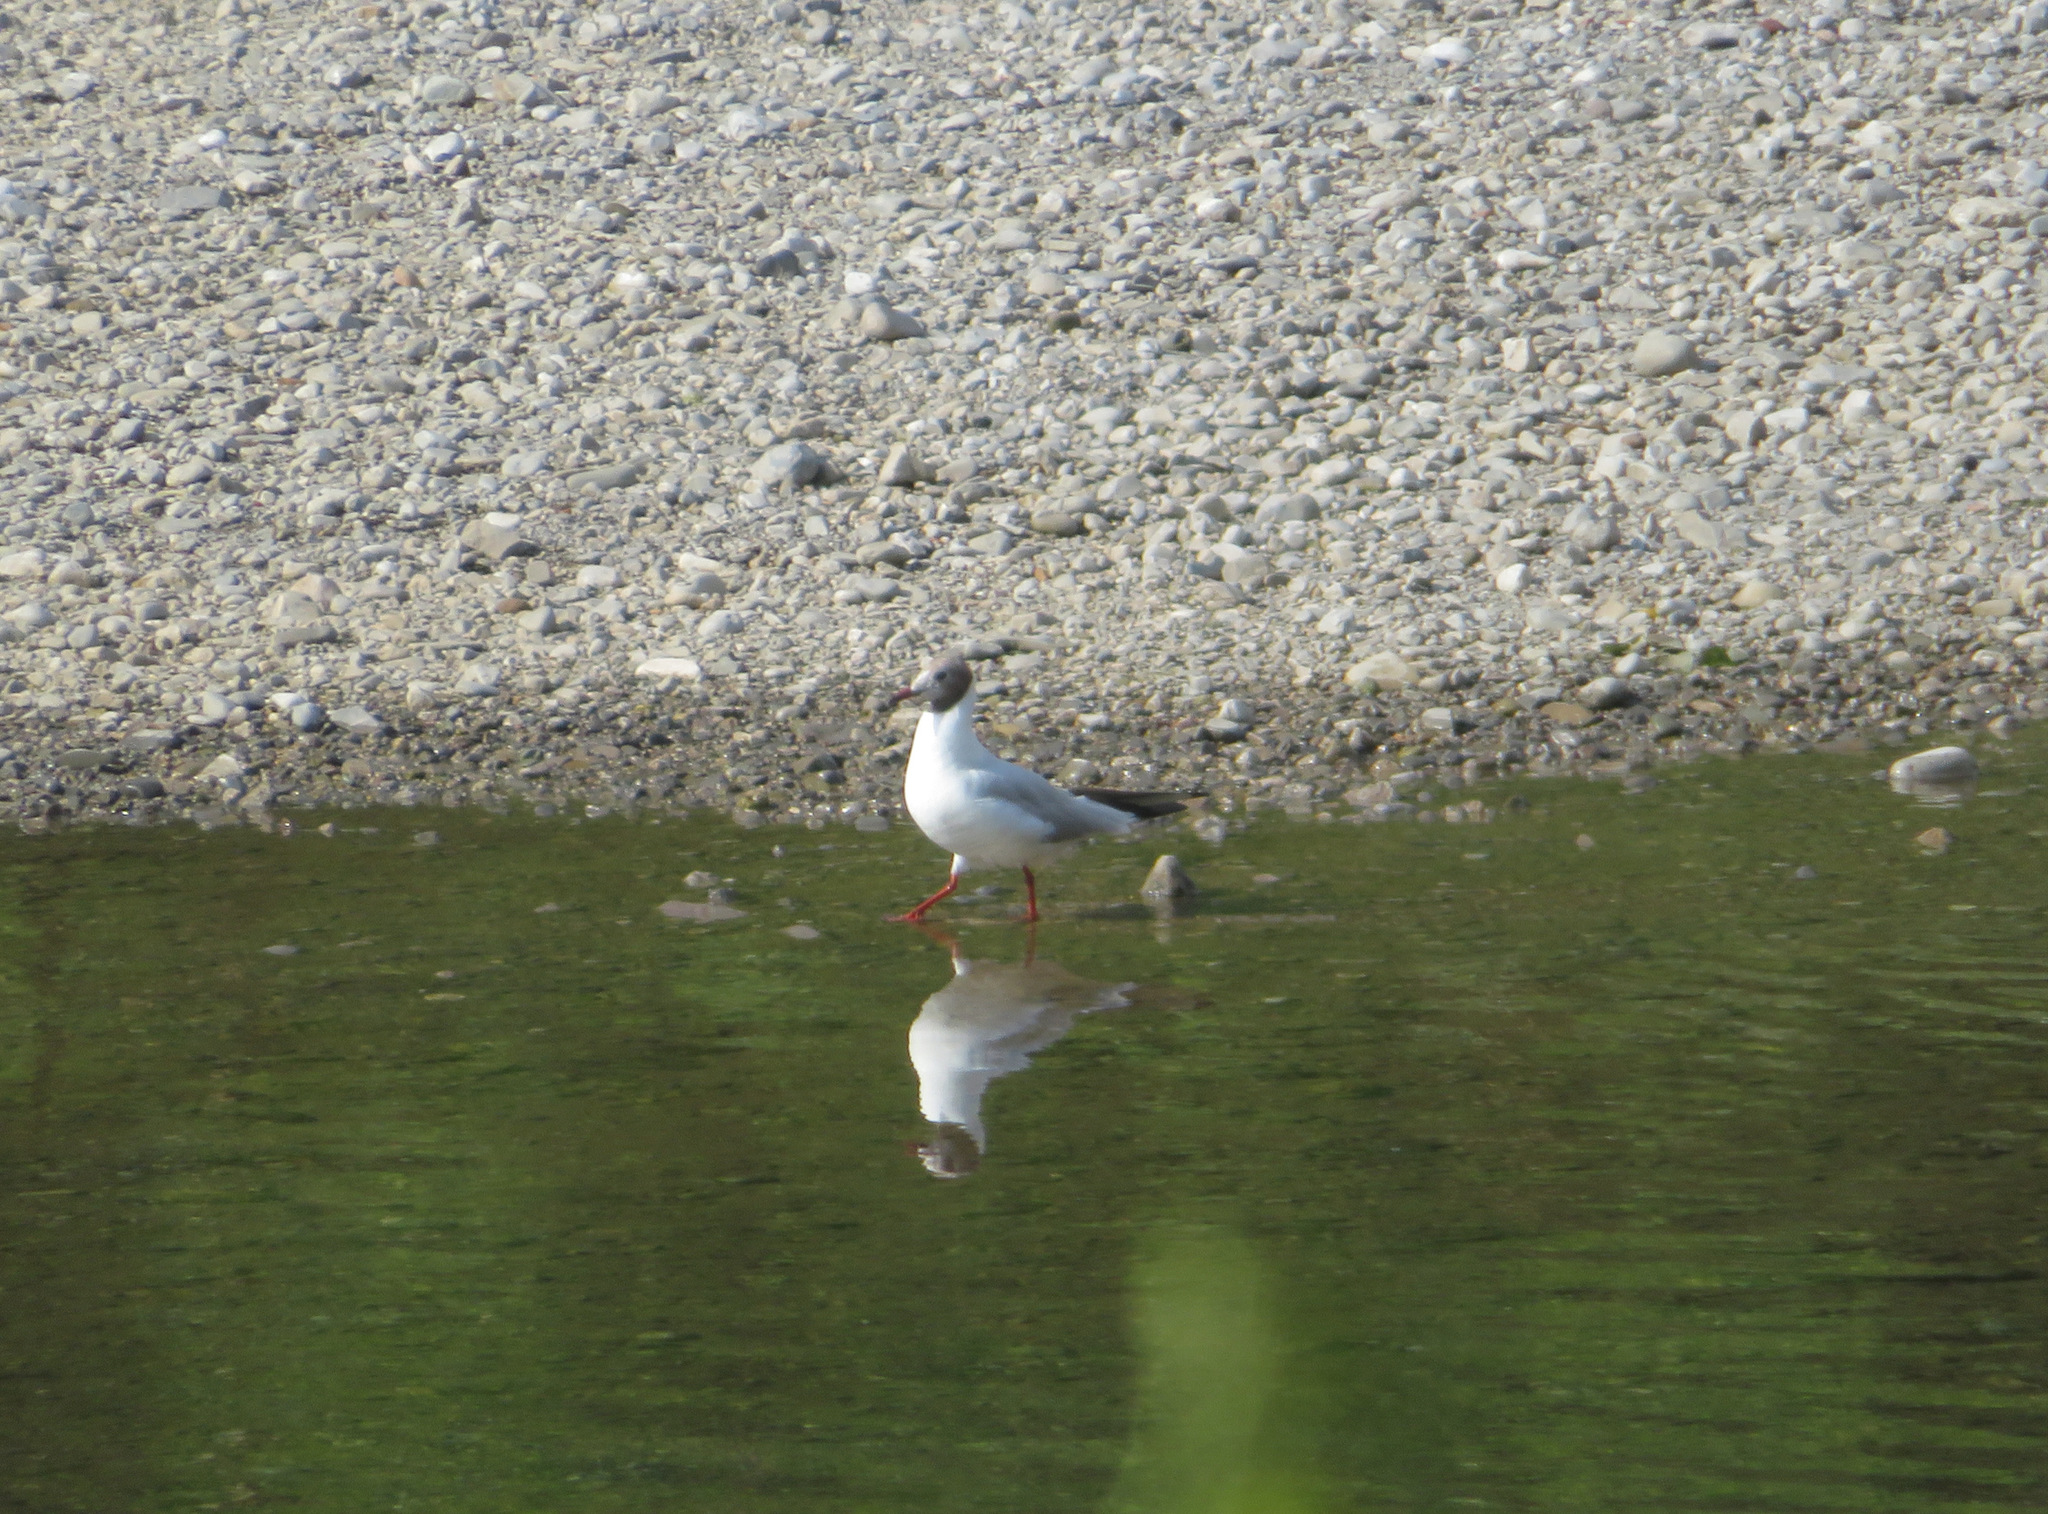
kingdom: Animalia
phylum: Chordata
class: Aves
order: Charadriiformes
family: Laridae
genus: Chroicocephalus
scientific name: Chroicocephalus ridibundus
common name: Black-headed gull
